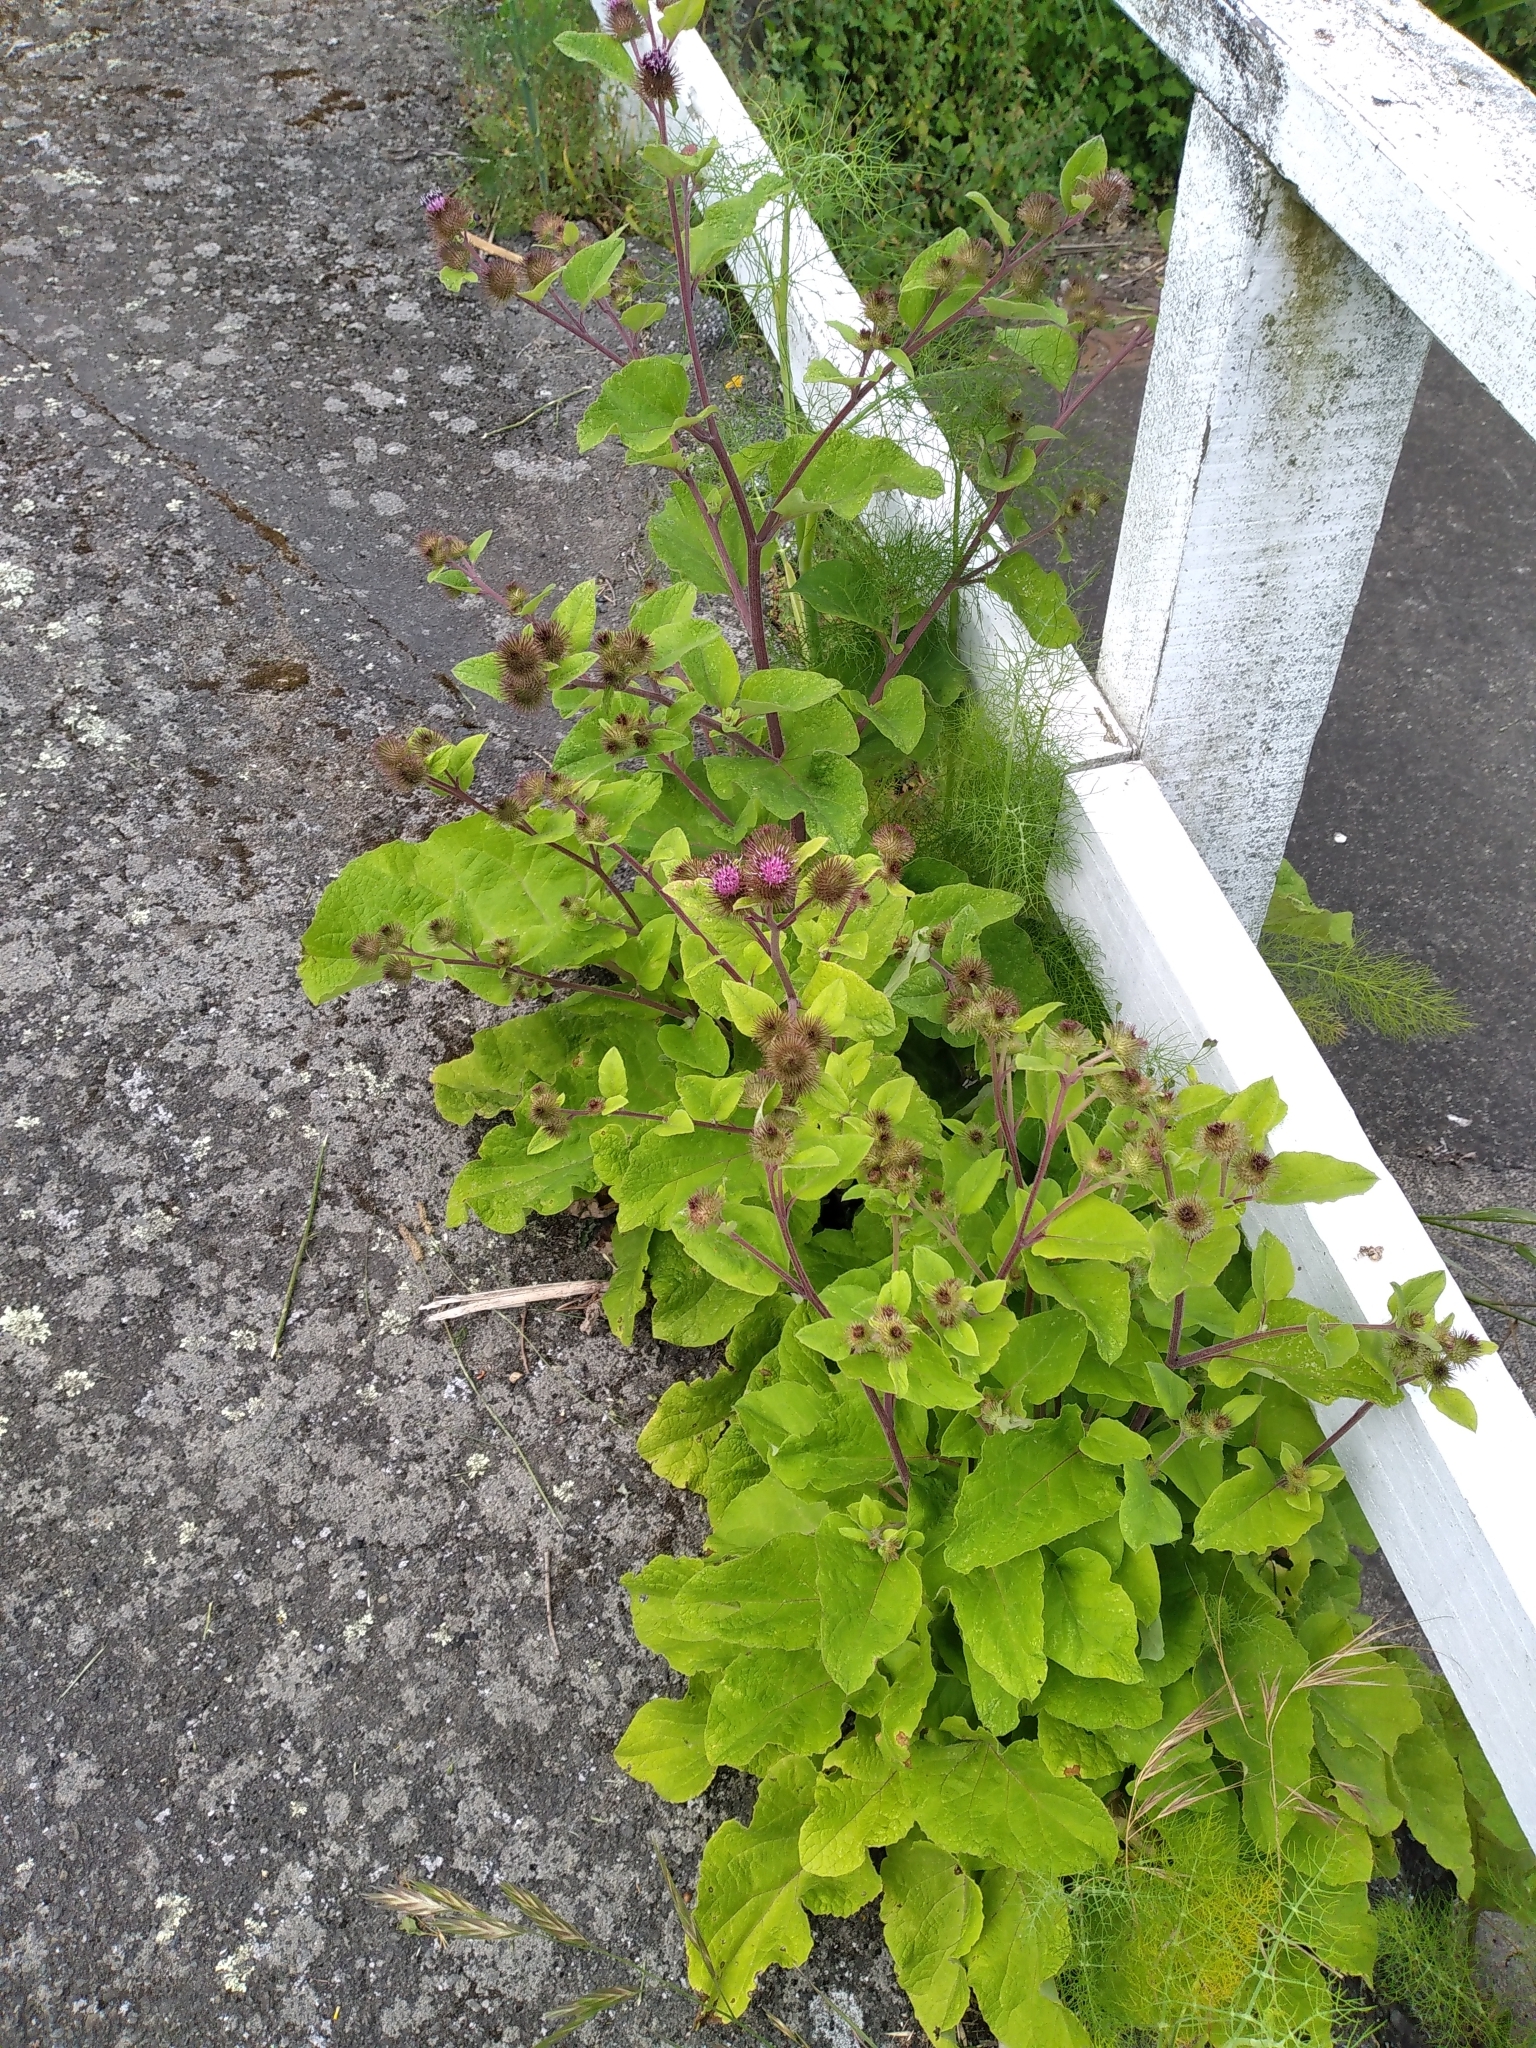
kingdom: Plantae
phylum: Tracheophyta
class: Magnoliopsida
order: Asterales
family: Asteraceae
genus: Arctium
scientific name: Arctium minus
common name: Lesser burdock
